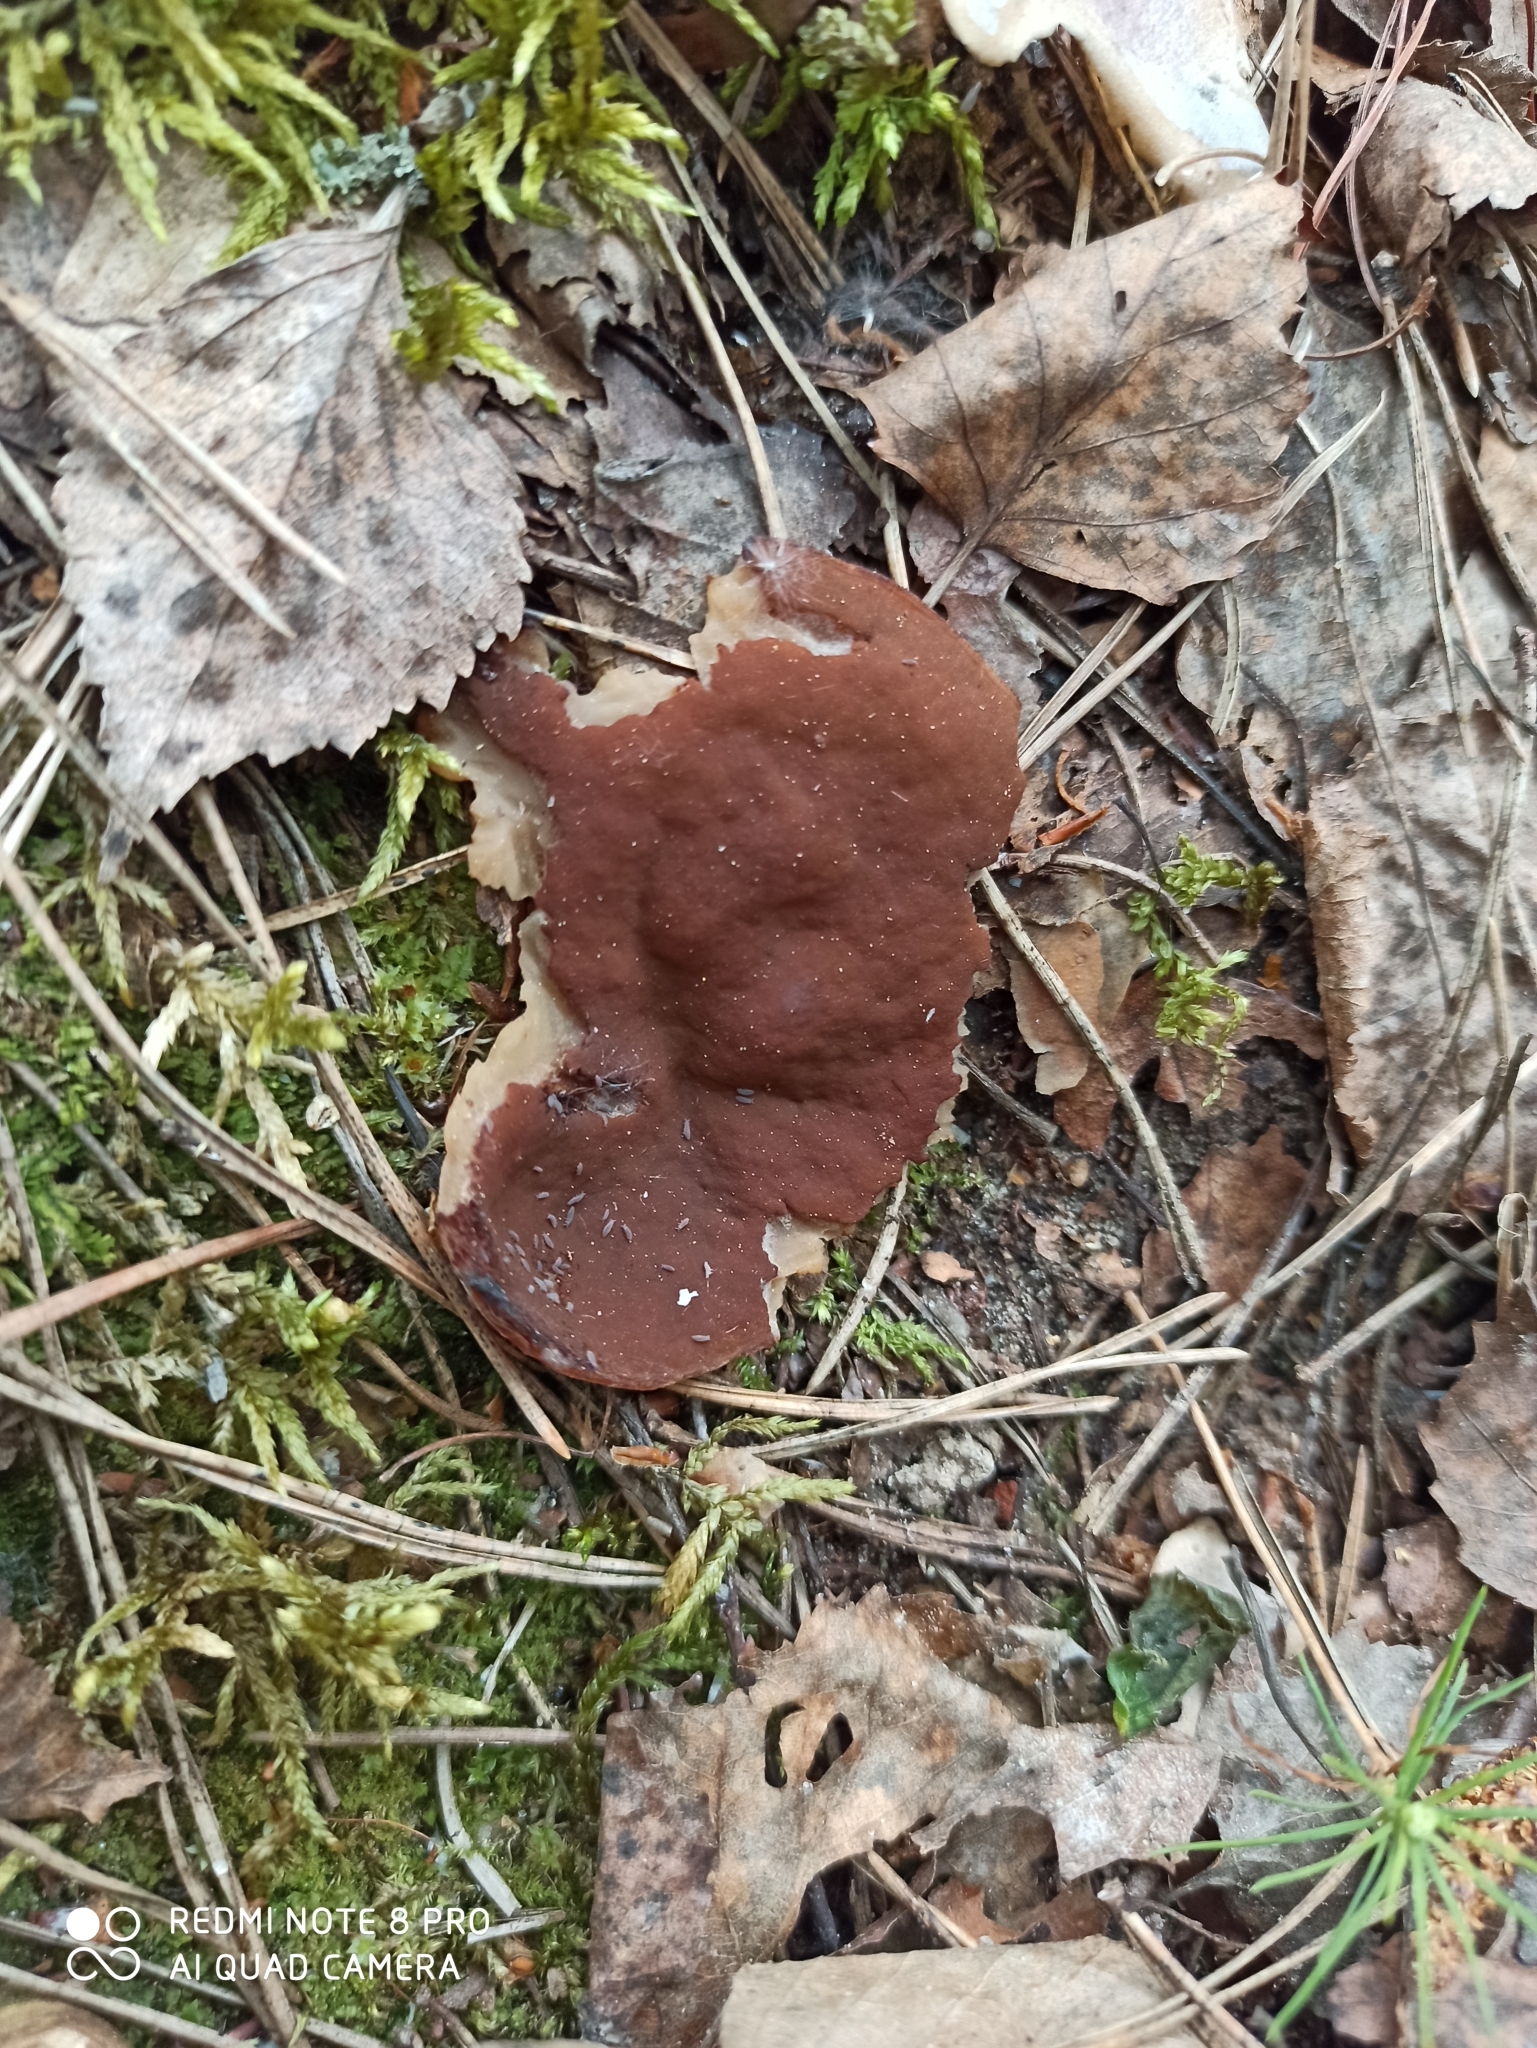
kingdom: Fungi
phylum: Ascomycota
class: Pezizomycetes
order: Pezizales
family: Discinaceae
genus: Discina
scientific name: Discina ancilis
